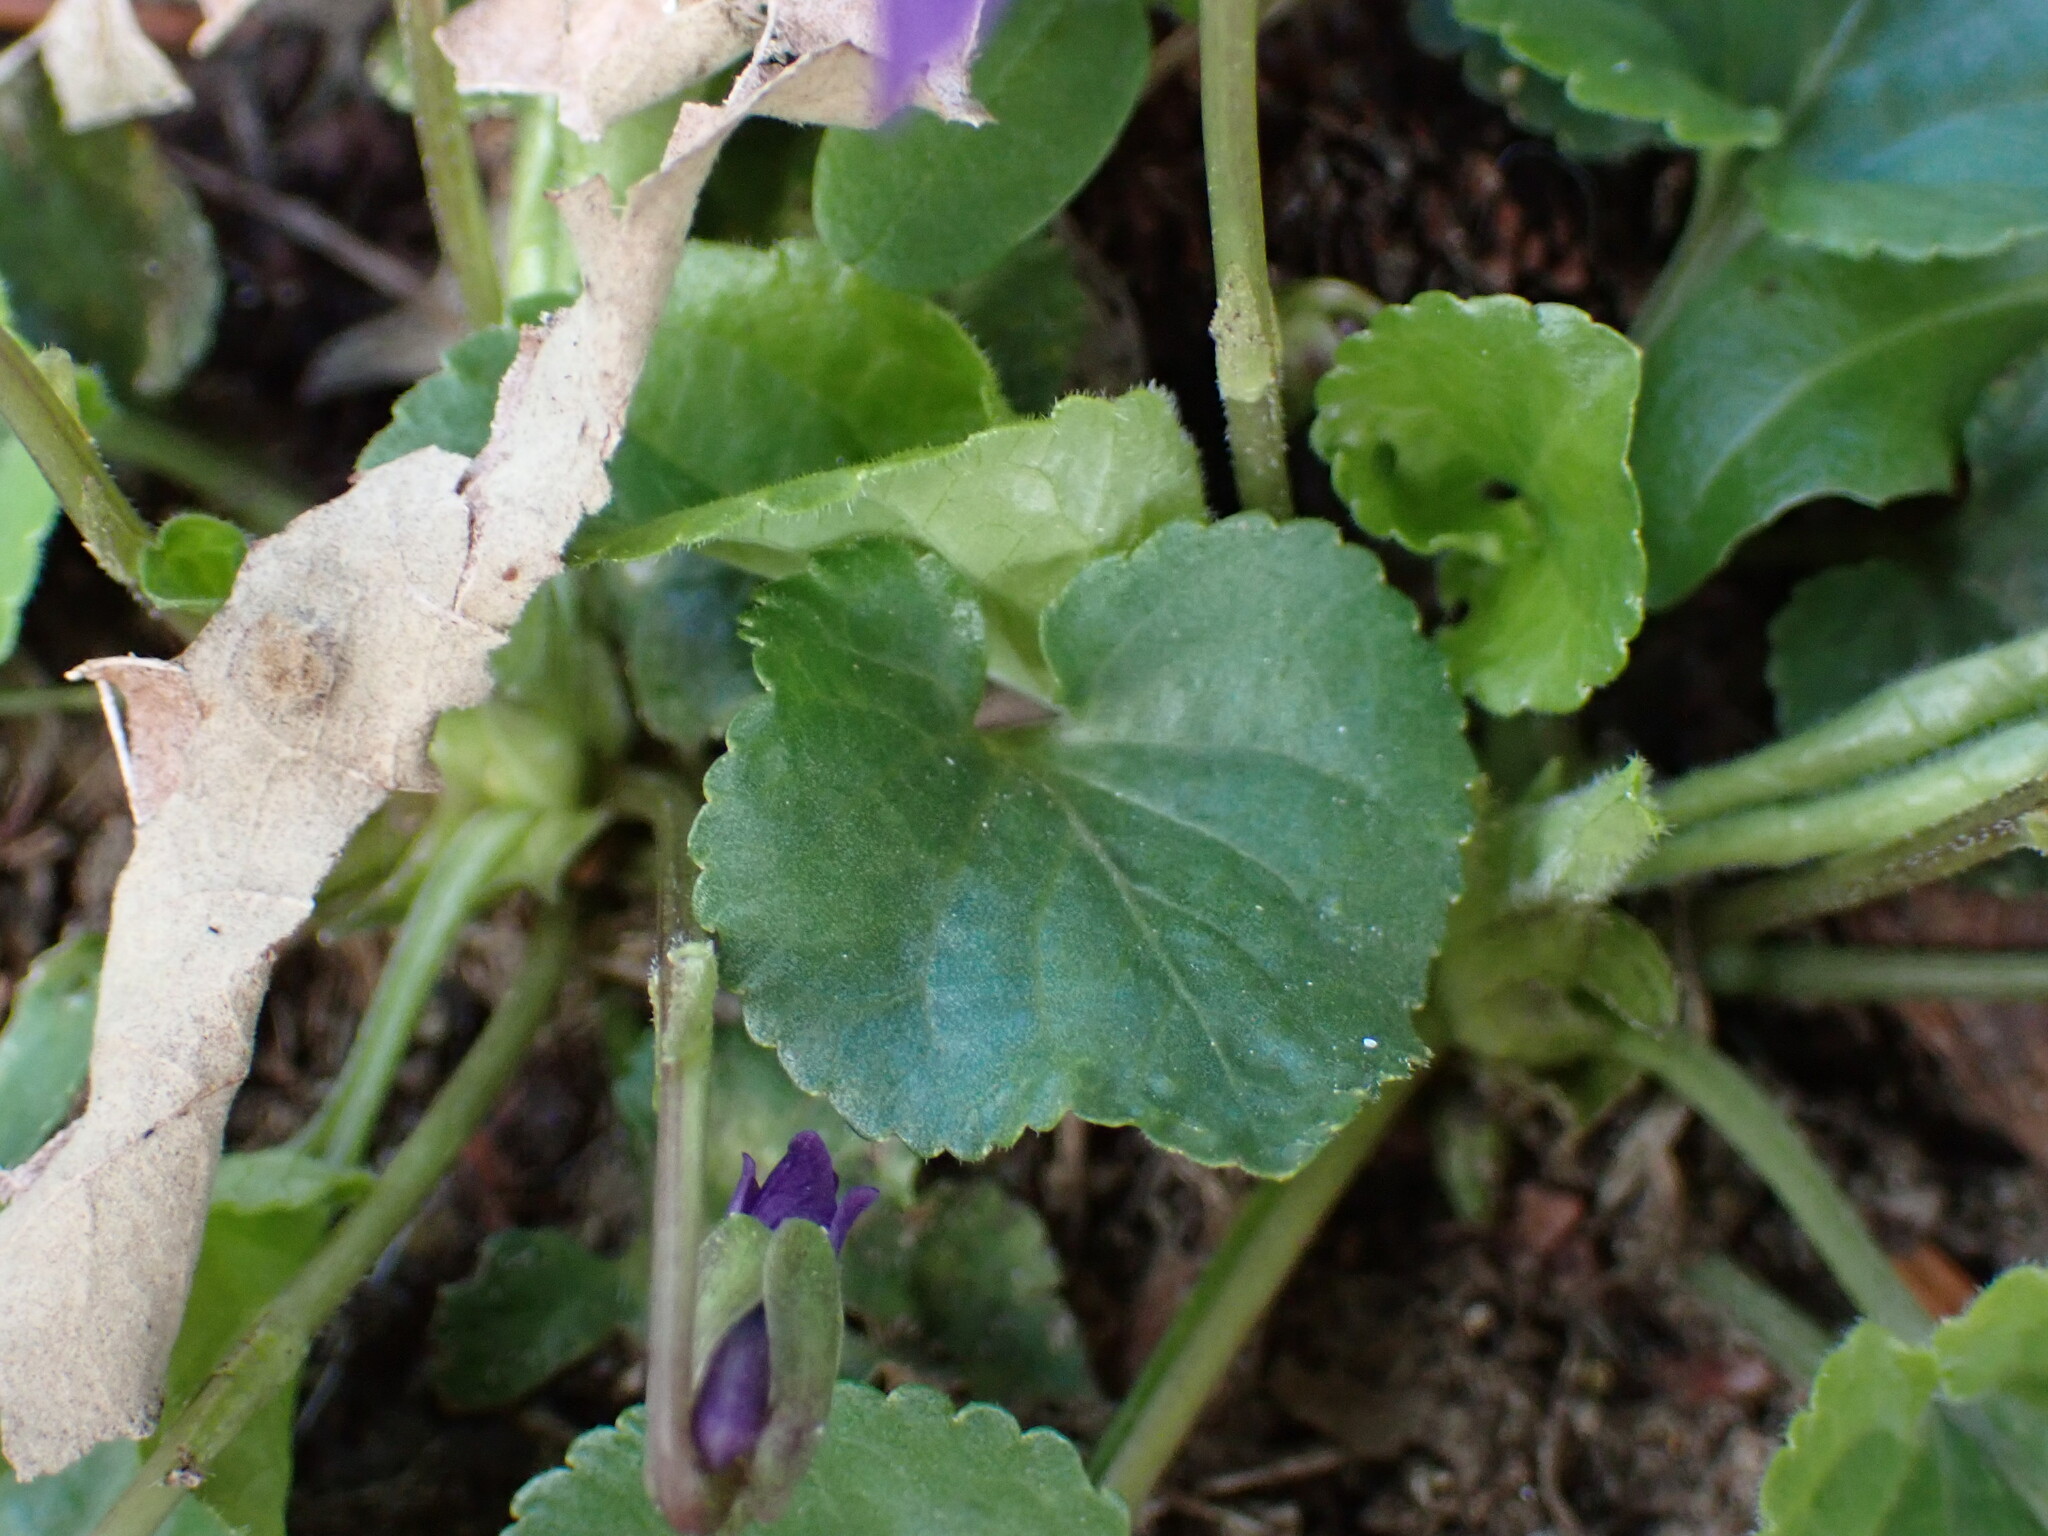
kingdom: Plantae
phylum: Tracheophyta
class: Magnoliopsida
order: Malpighiales
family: Violaceae
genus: Viola
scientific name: Viola odorata
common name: Sweet violet
